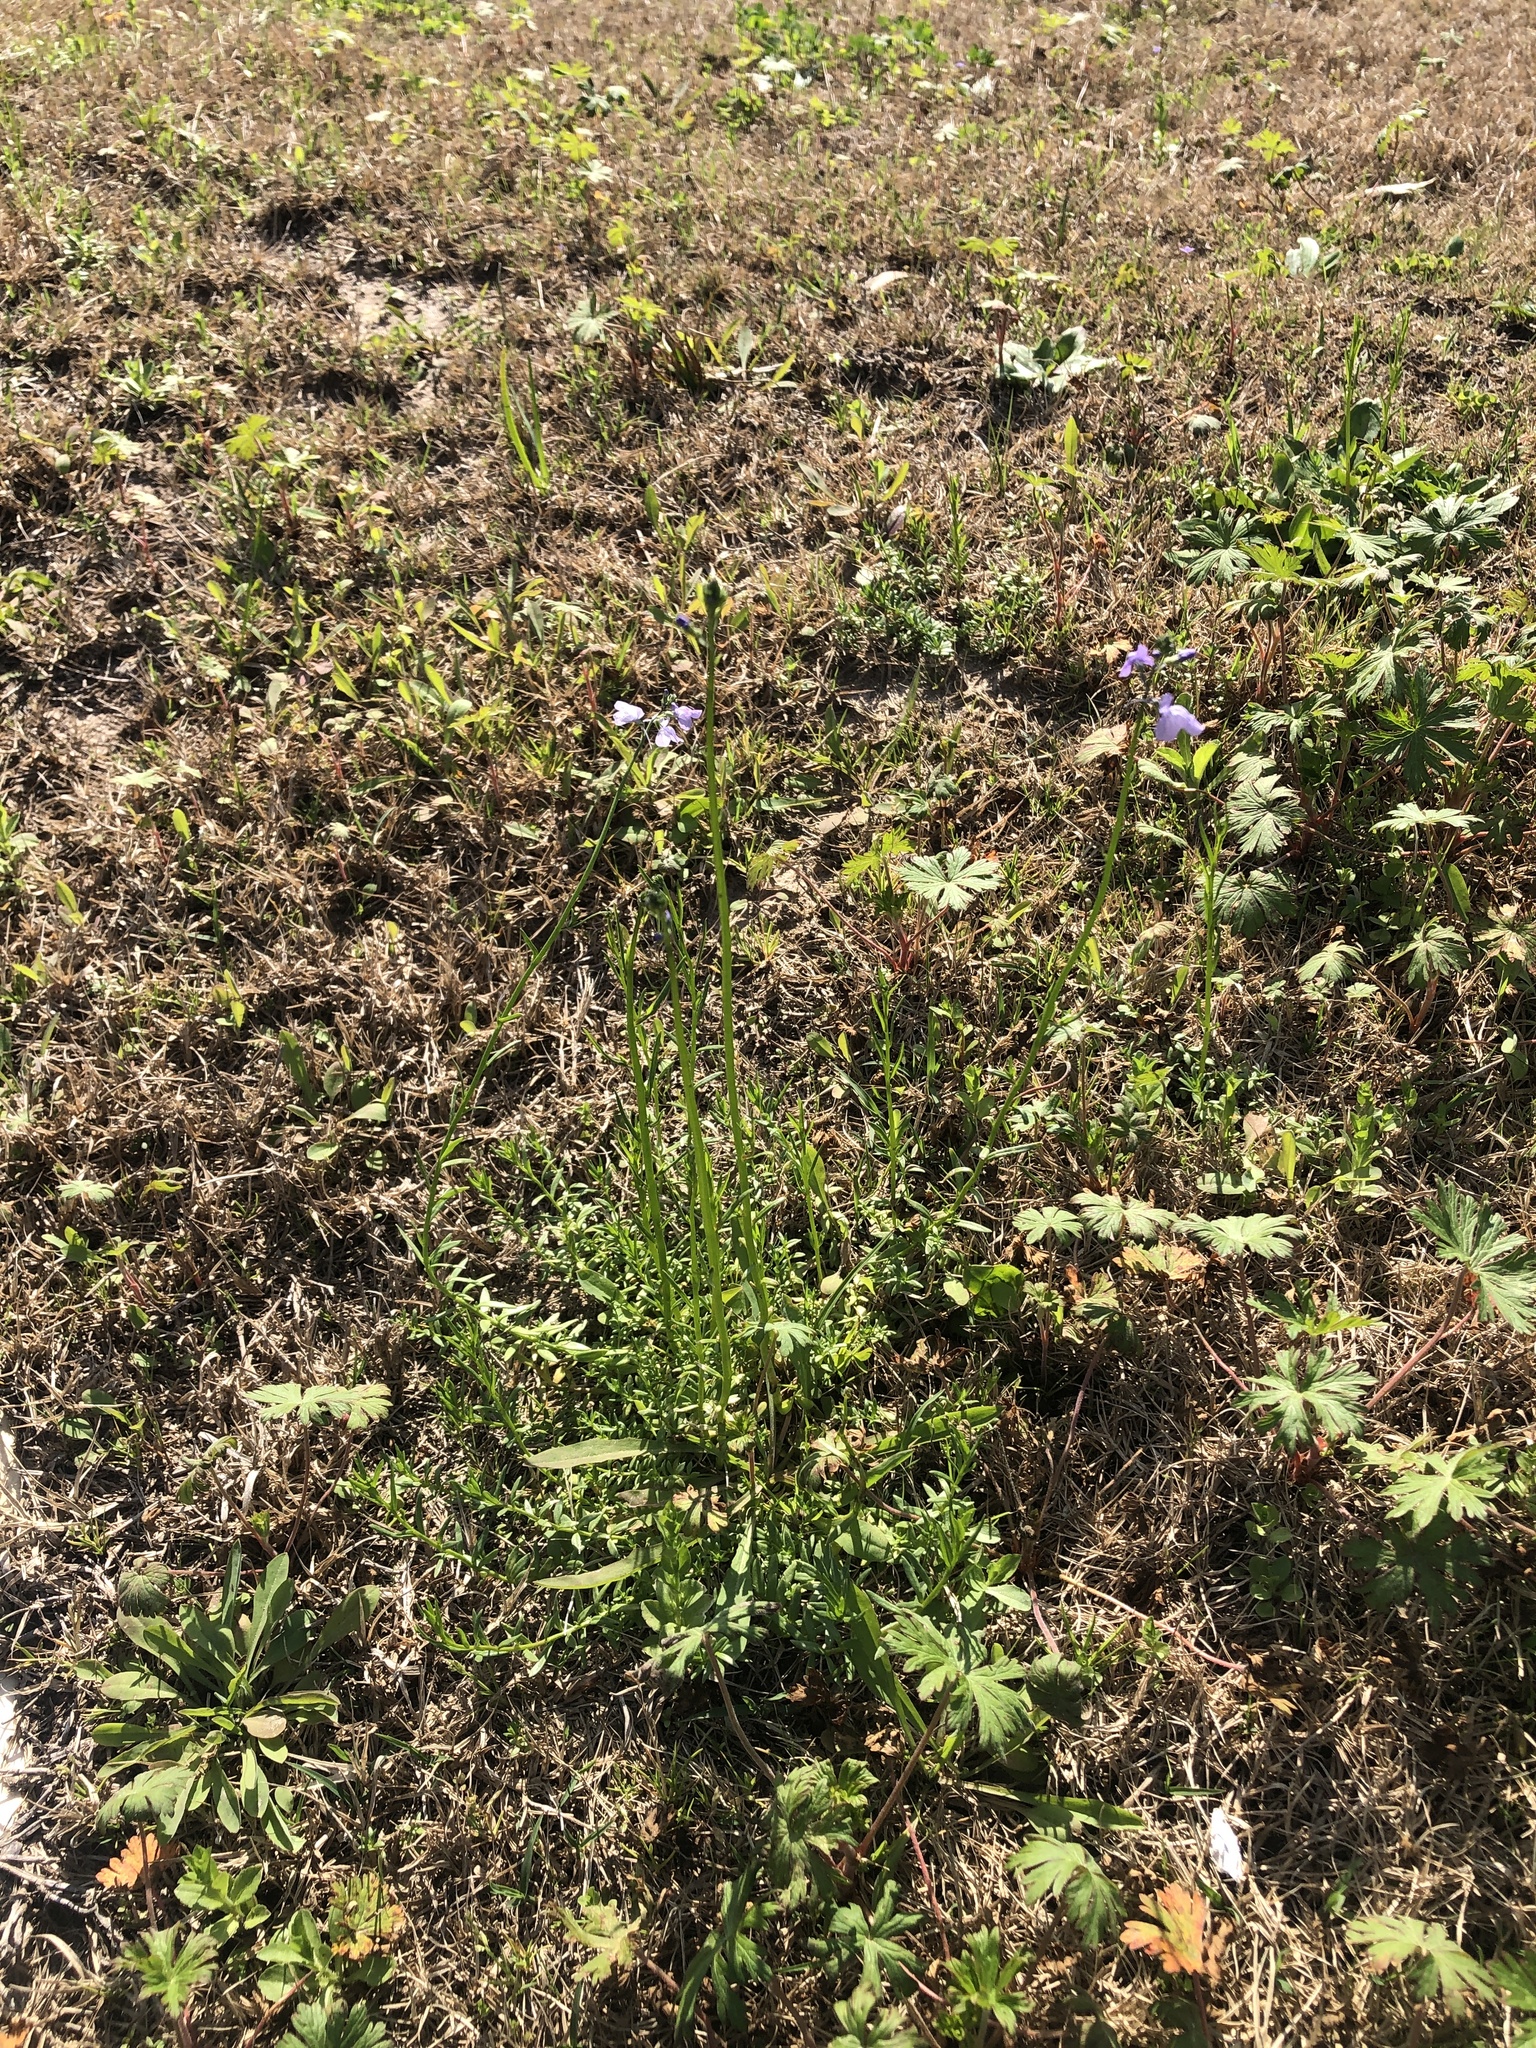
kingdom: Plantae
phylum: Tracheophyta
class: Magnoliopsida
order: Lamiales
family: Plantaginaceae
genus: Nuttallanthus
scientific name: Nuttallanthus texanus
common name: Texas toadflax
